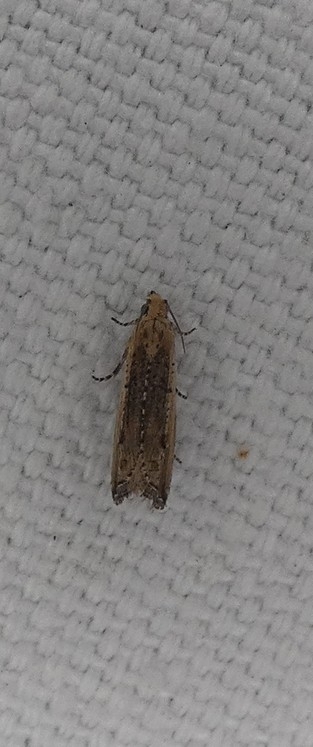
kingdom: Animalia
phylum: Arthropoda
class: Insecta
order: Lepidoptera
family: Tortricidae
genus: Bactra
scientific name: Bactra verutana
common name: Javelin moth
